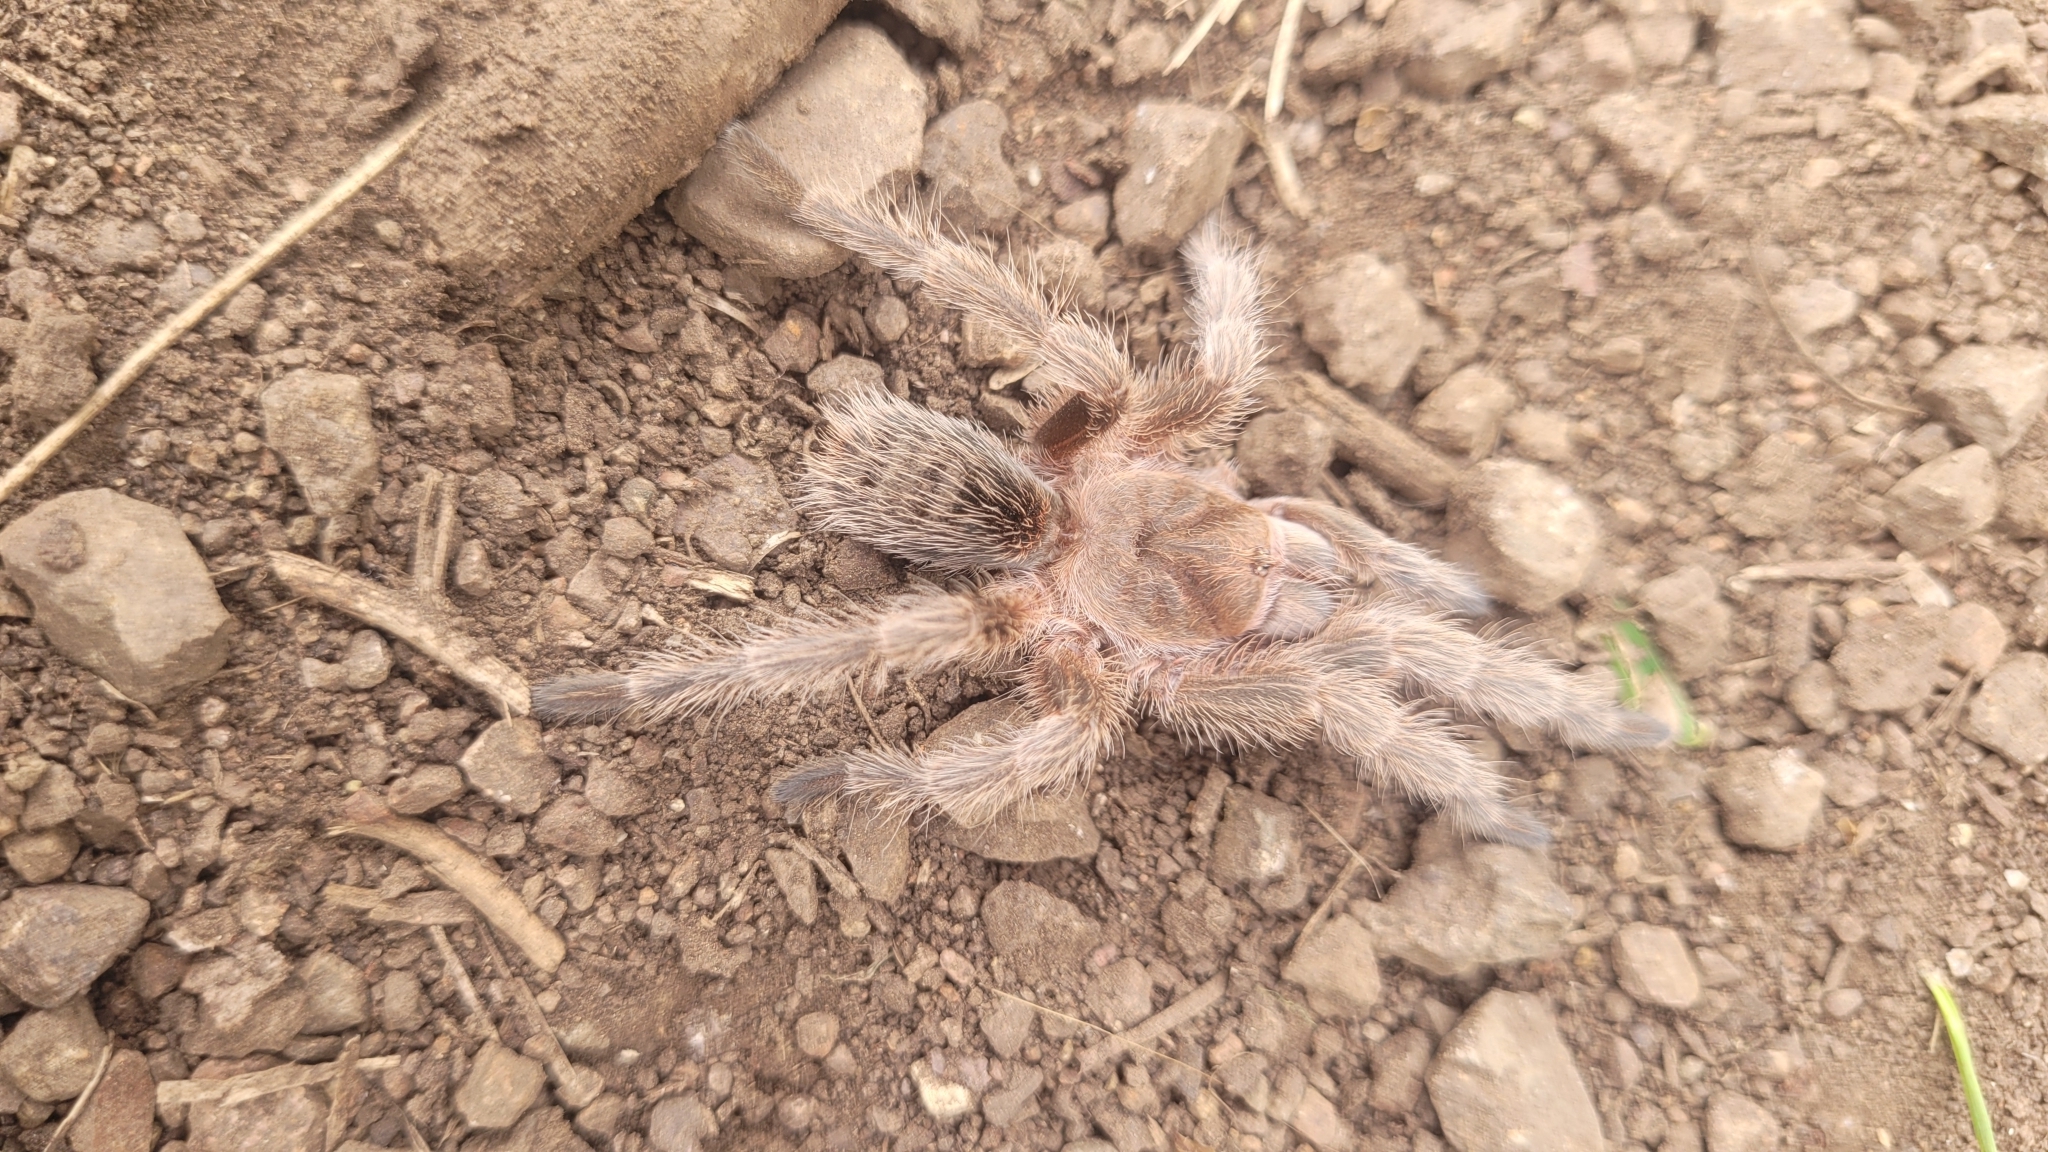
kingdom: Animalia
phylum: Arthropoda
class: Arachnida
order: Araneae
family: Theraphosidae
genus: Grammostola
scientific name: Grammostola rosea
